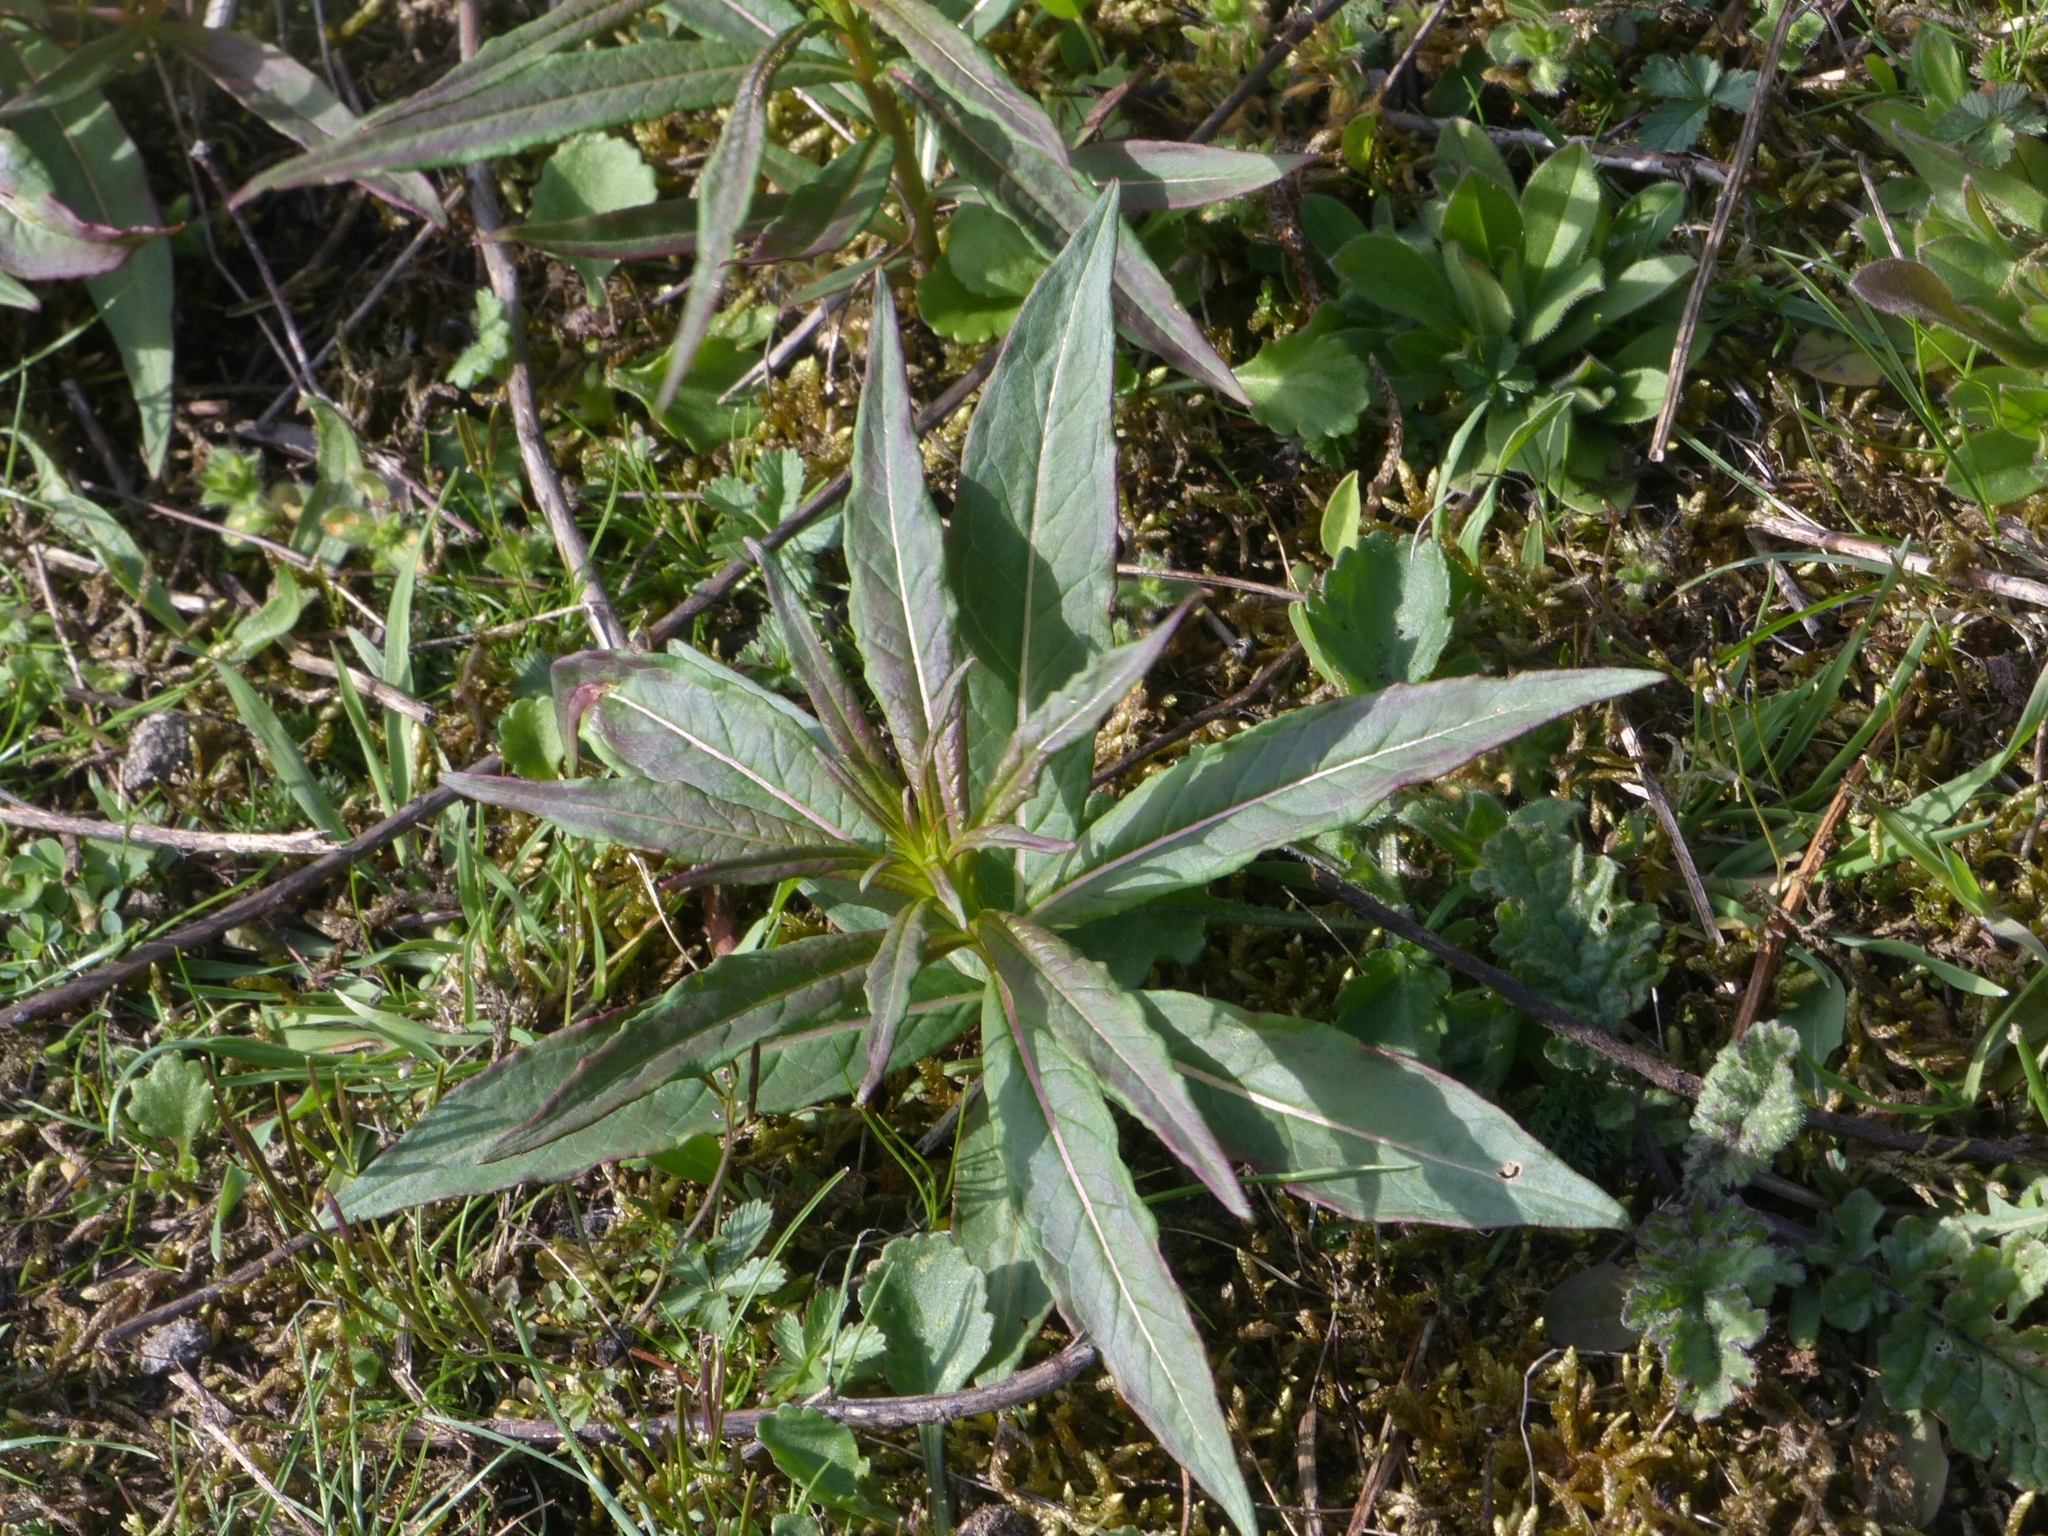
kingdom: Plantae
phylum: Tracheophyta
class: Magnoliopsida
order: Myrtales
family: Onagraceae
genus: Chamaenerion
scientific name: Chamaenerion angustifolium
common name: Fireweed
